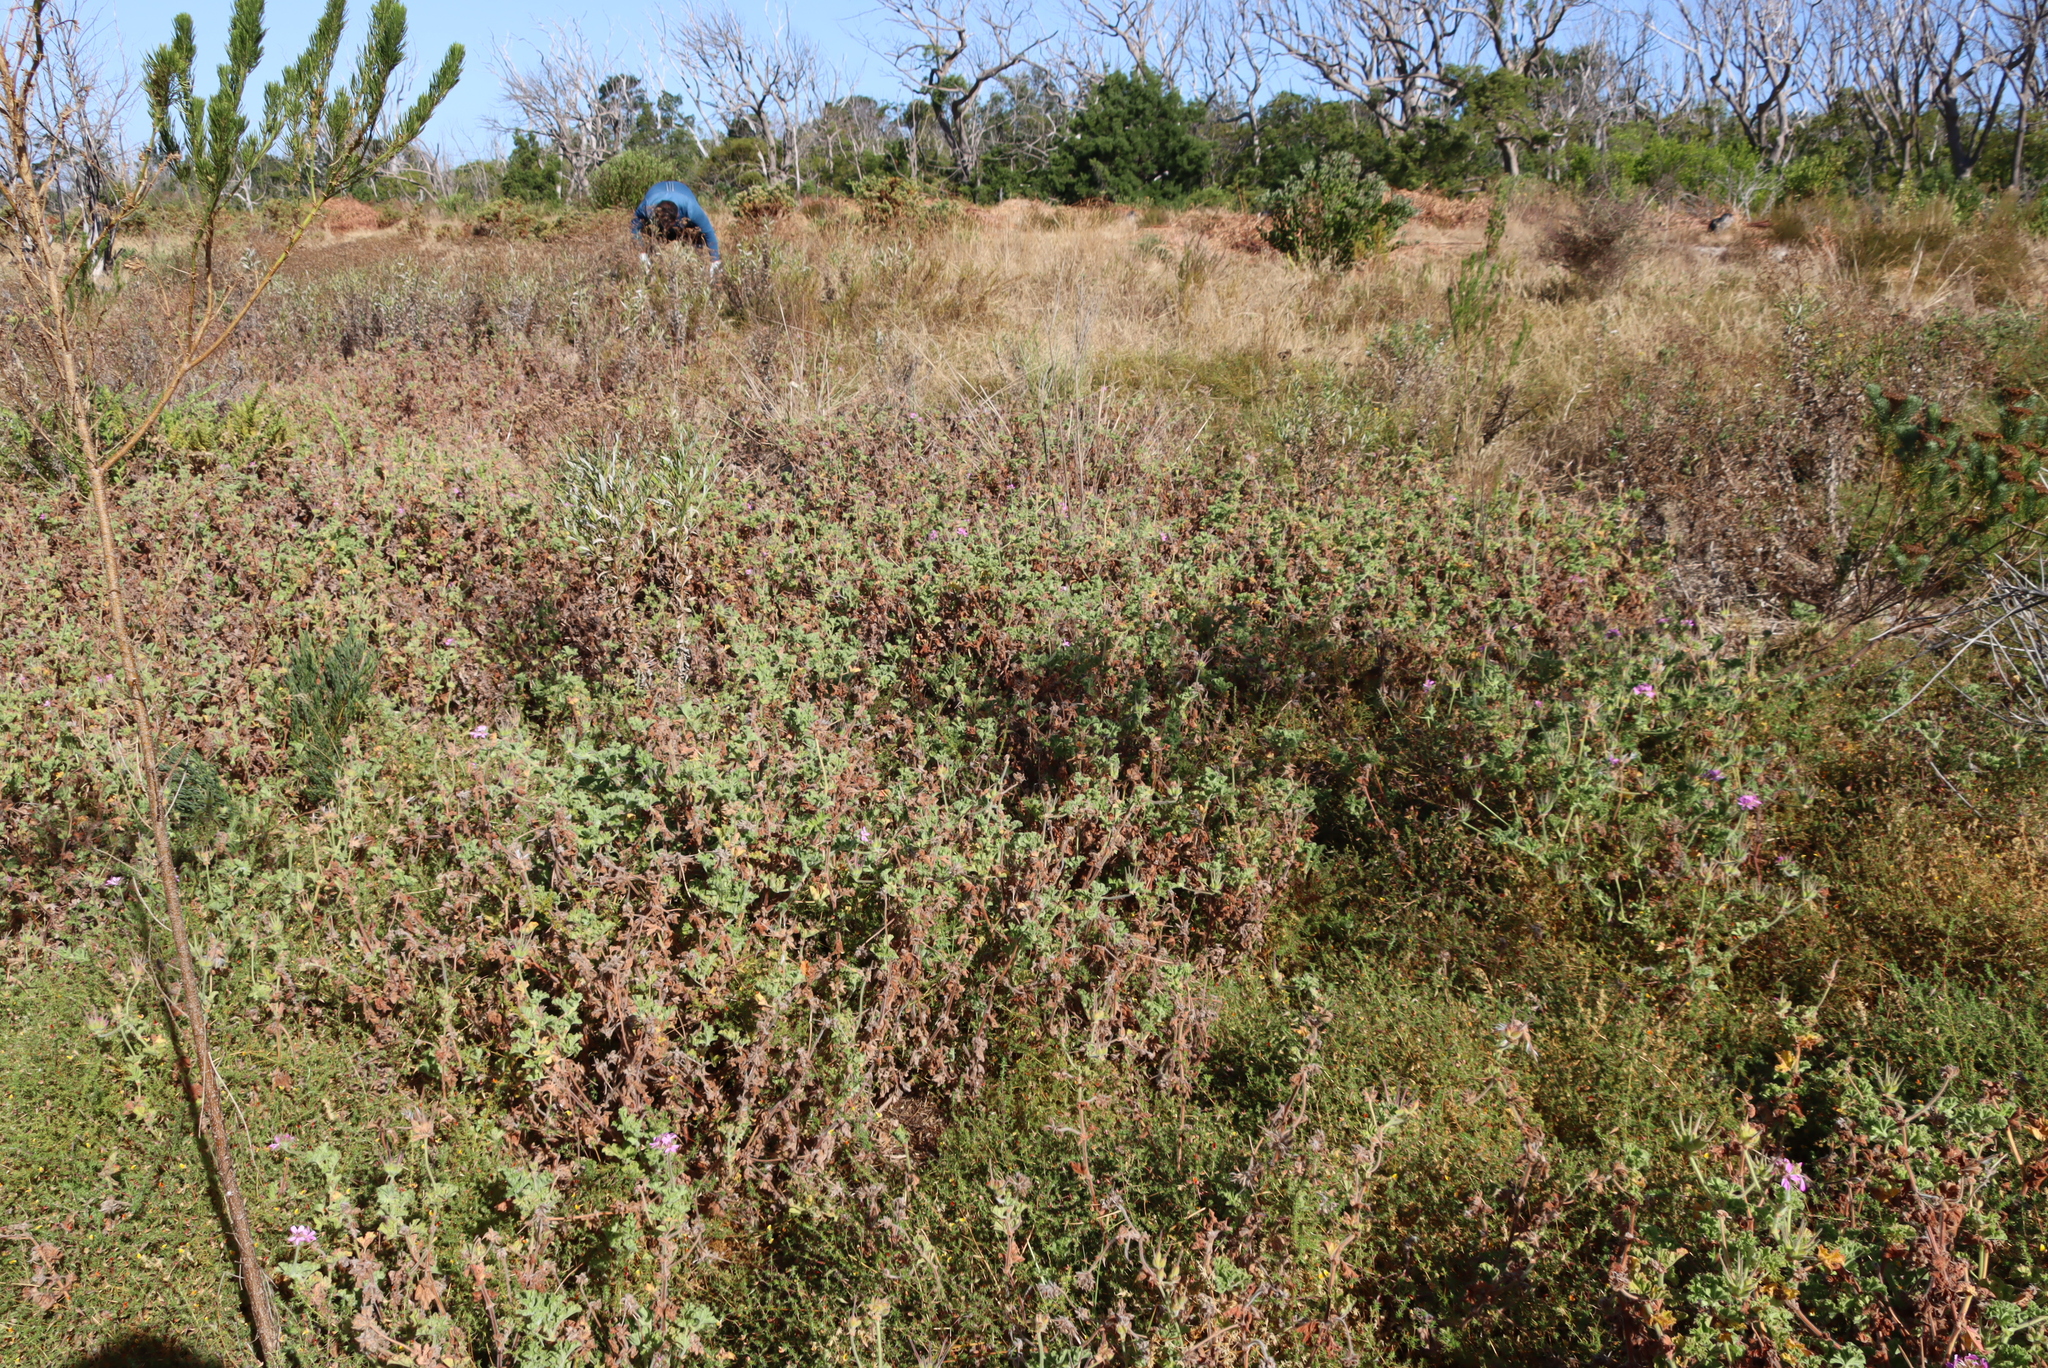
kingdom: Plantae
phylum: Tracheophyta
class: Magnoliopsida
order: Geraniales
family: Geraniaceae
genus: Pelargonium
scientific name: Pelargonium capitatum
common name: Rose scented geranium
